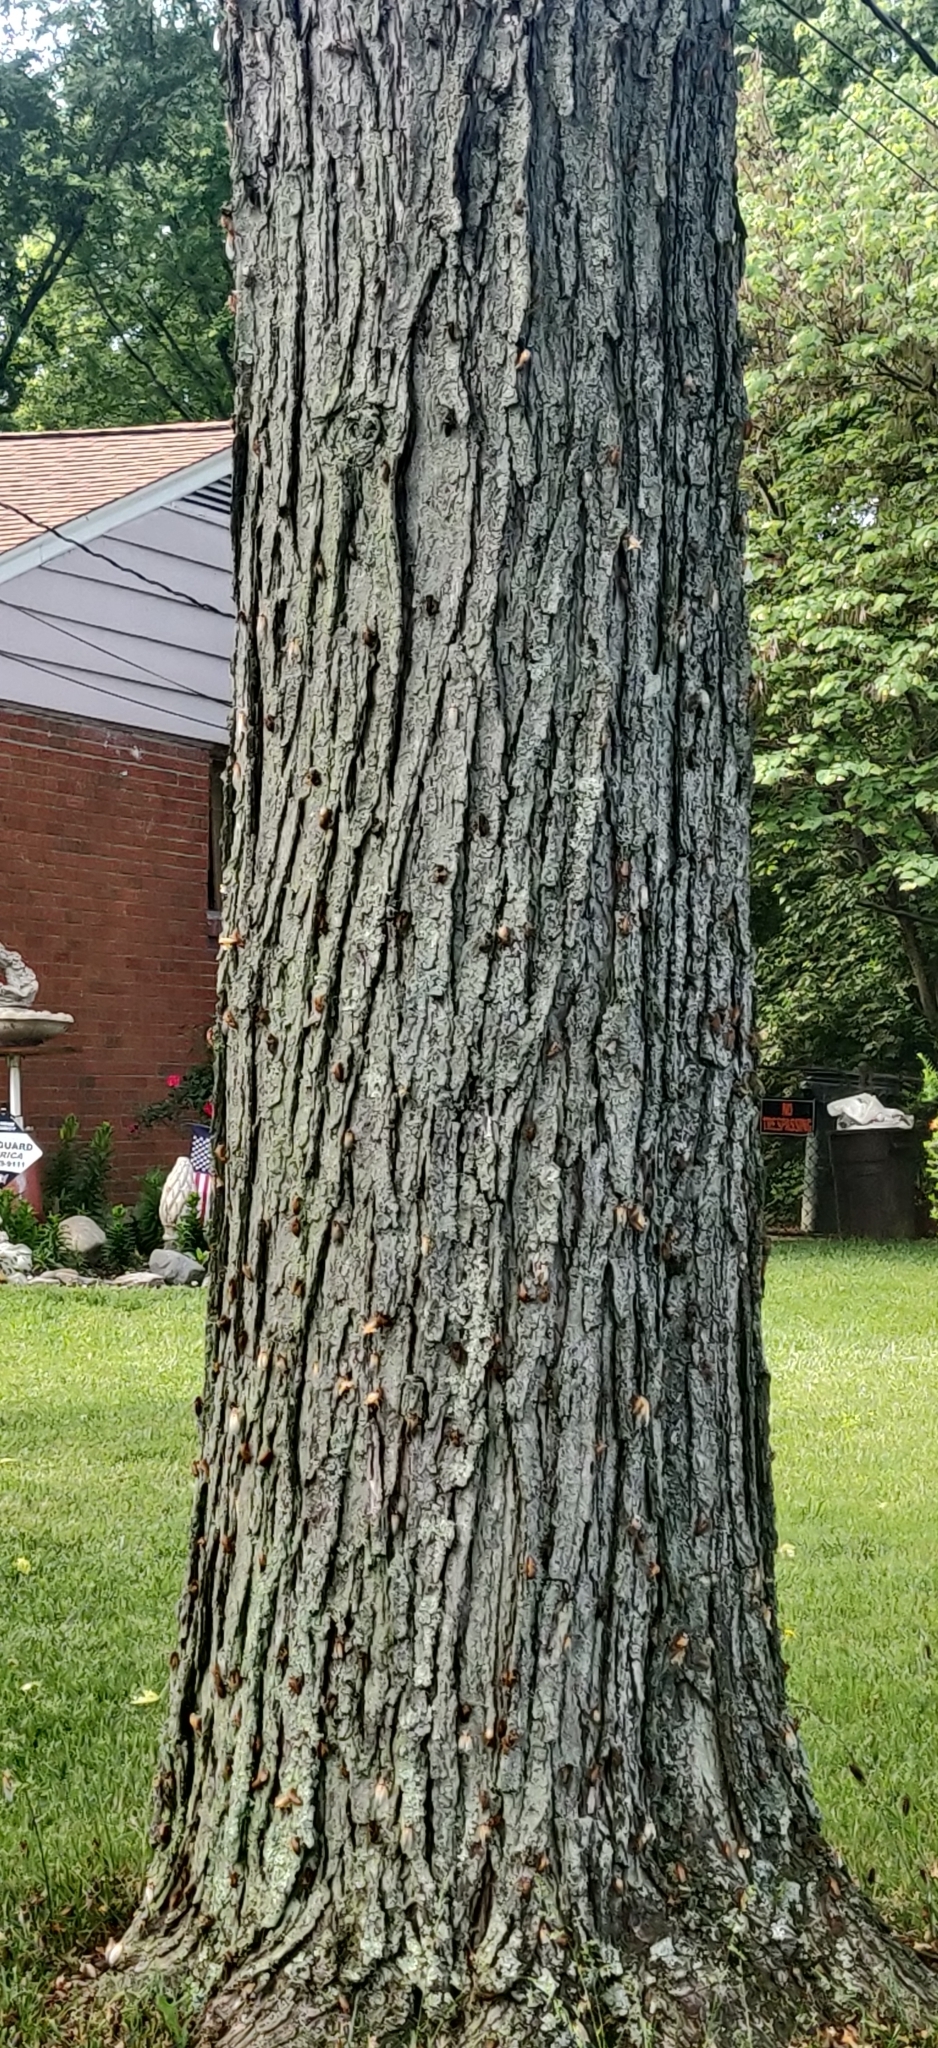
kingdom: Animalia
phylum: Arthropoda
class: Insecta
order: Hemiptera
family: Cicadidae
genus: Magicicada
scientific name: Magicicada
